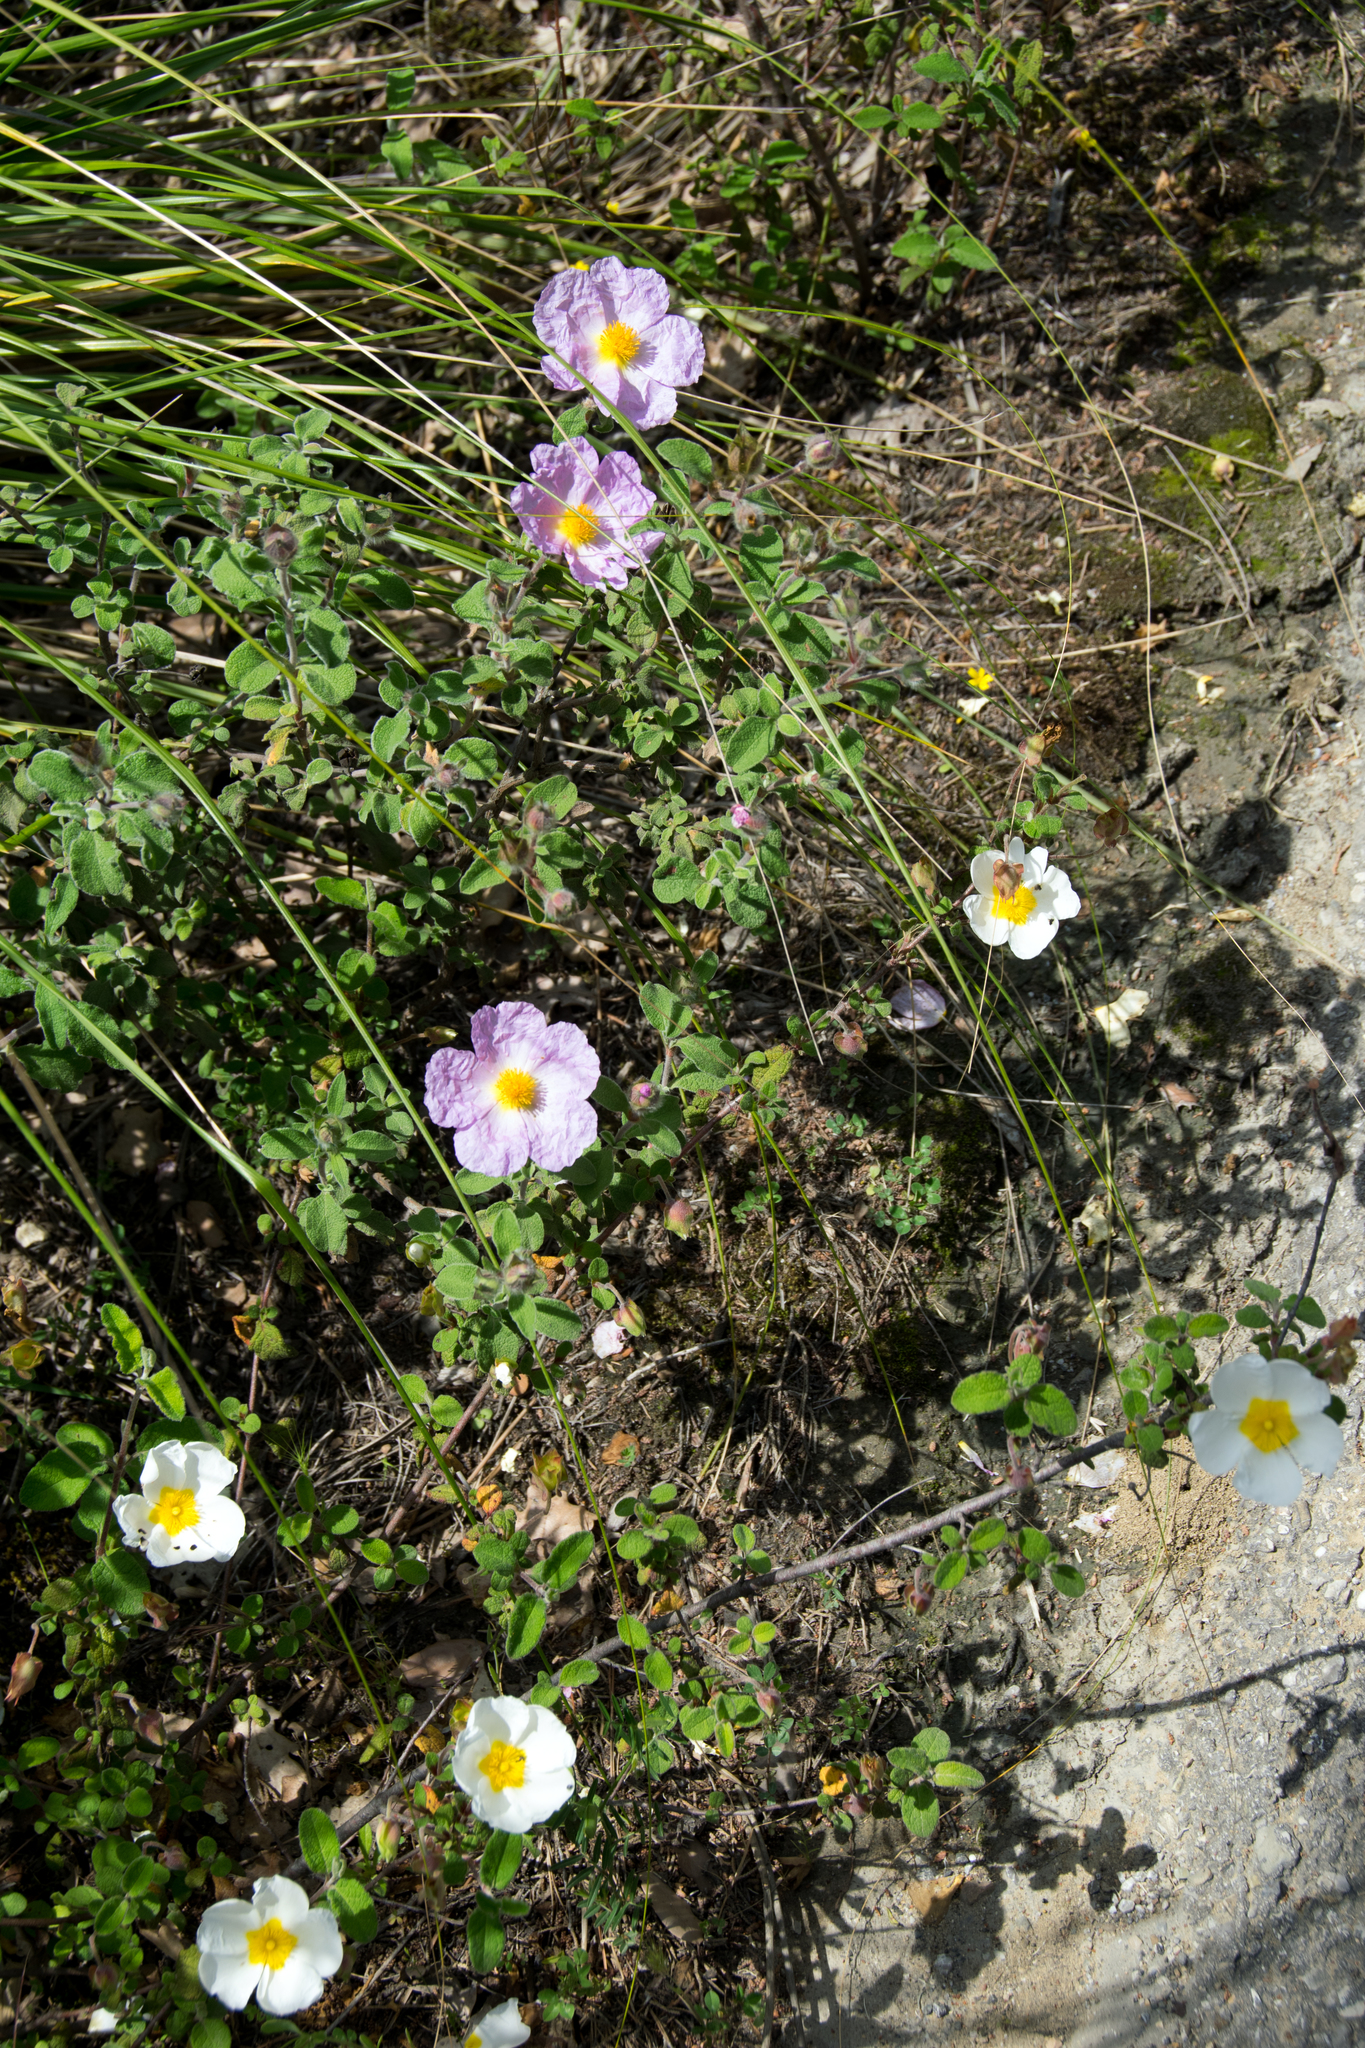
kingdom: Plantae
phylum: Tracheophyta
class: Magnoliopsida
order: Malvales
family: Cistaceae
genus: Cistus
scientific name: Cistus tauricus
